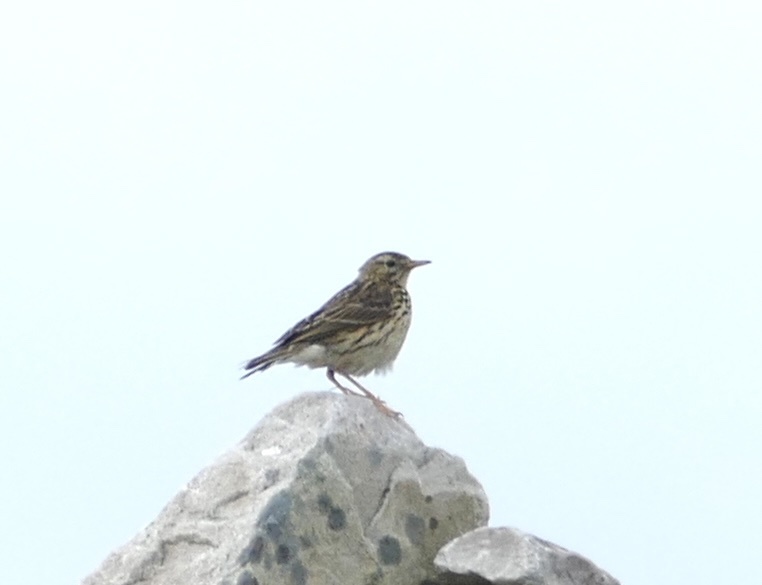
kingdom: Animalia
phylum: Chordata
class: Aves
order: Passeriformes
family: Motacillidae
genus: Anthus
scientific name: Anthus pratensis
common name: Meadow pipit
